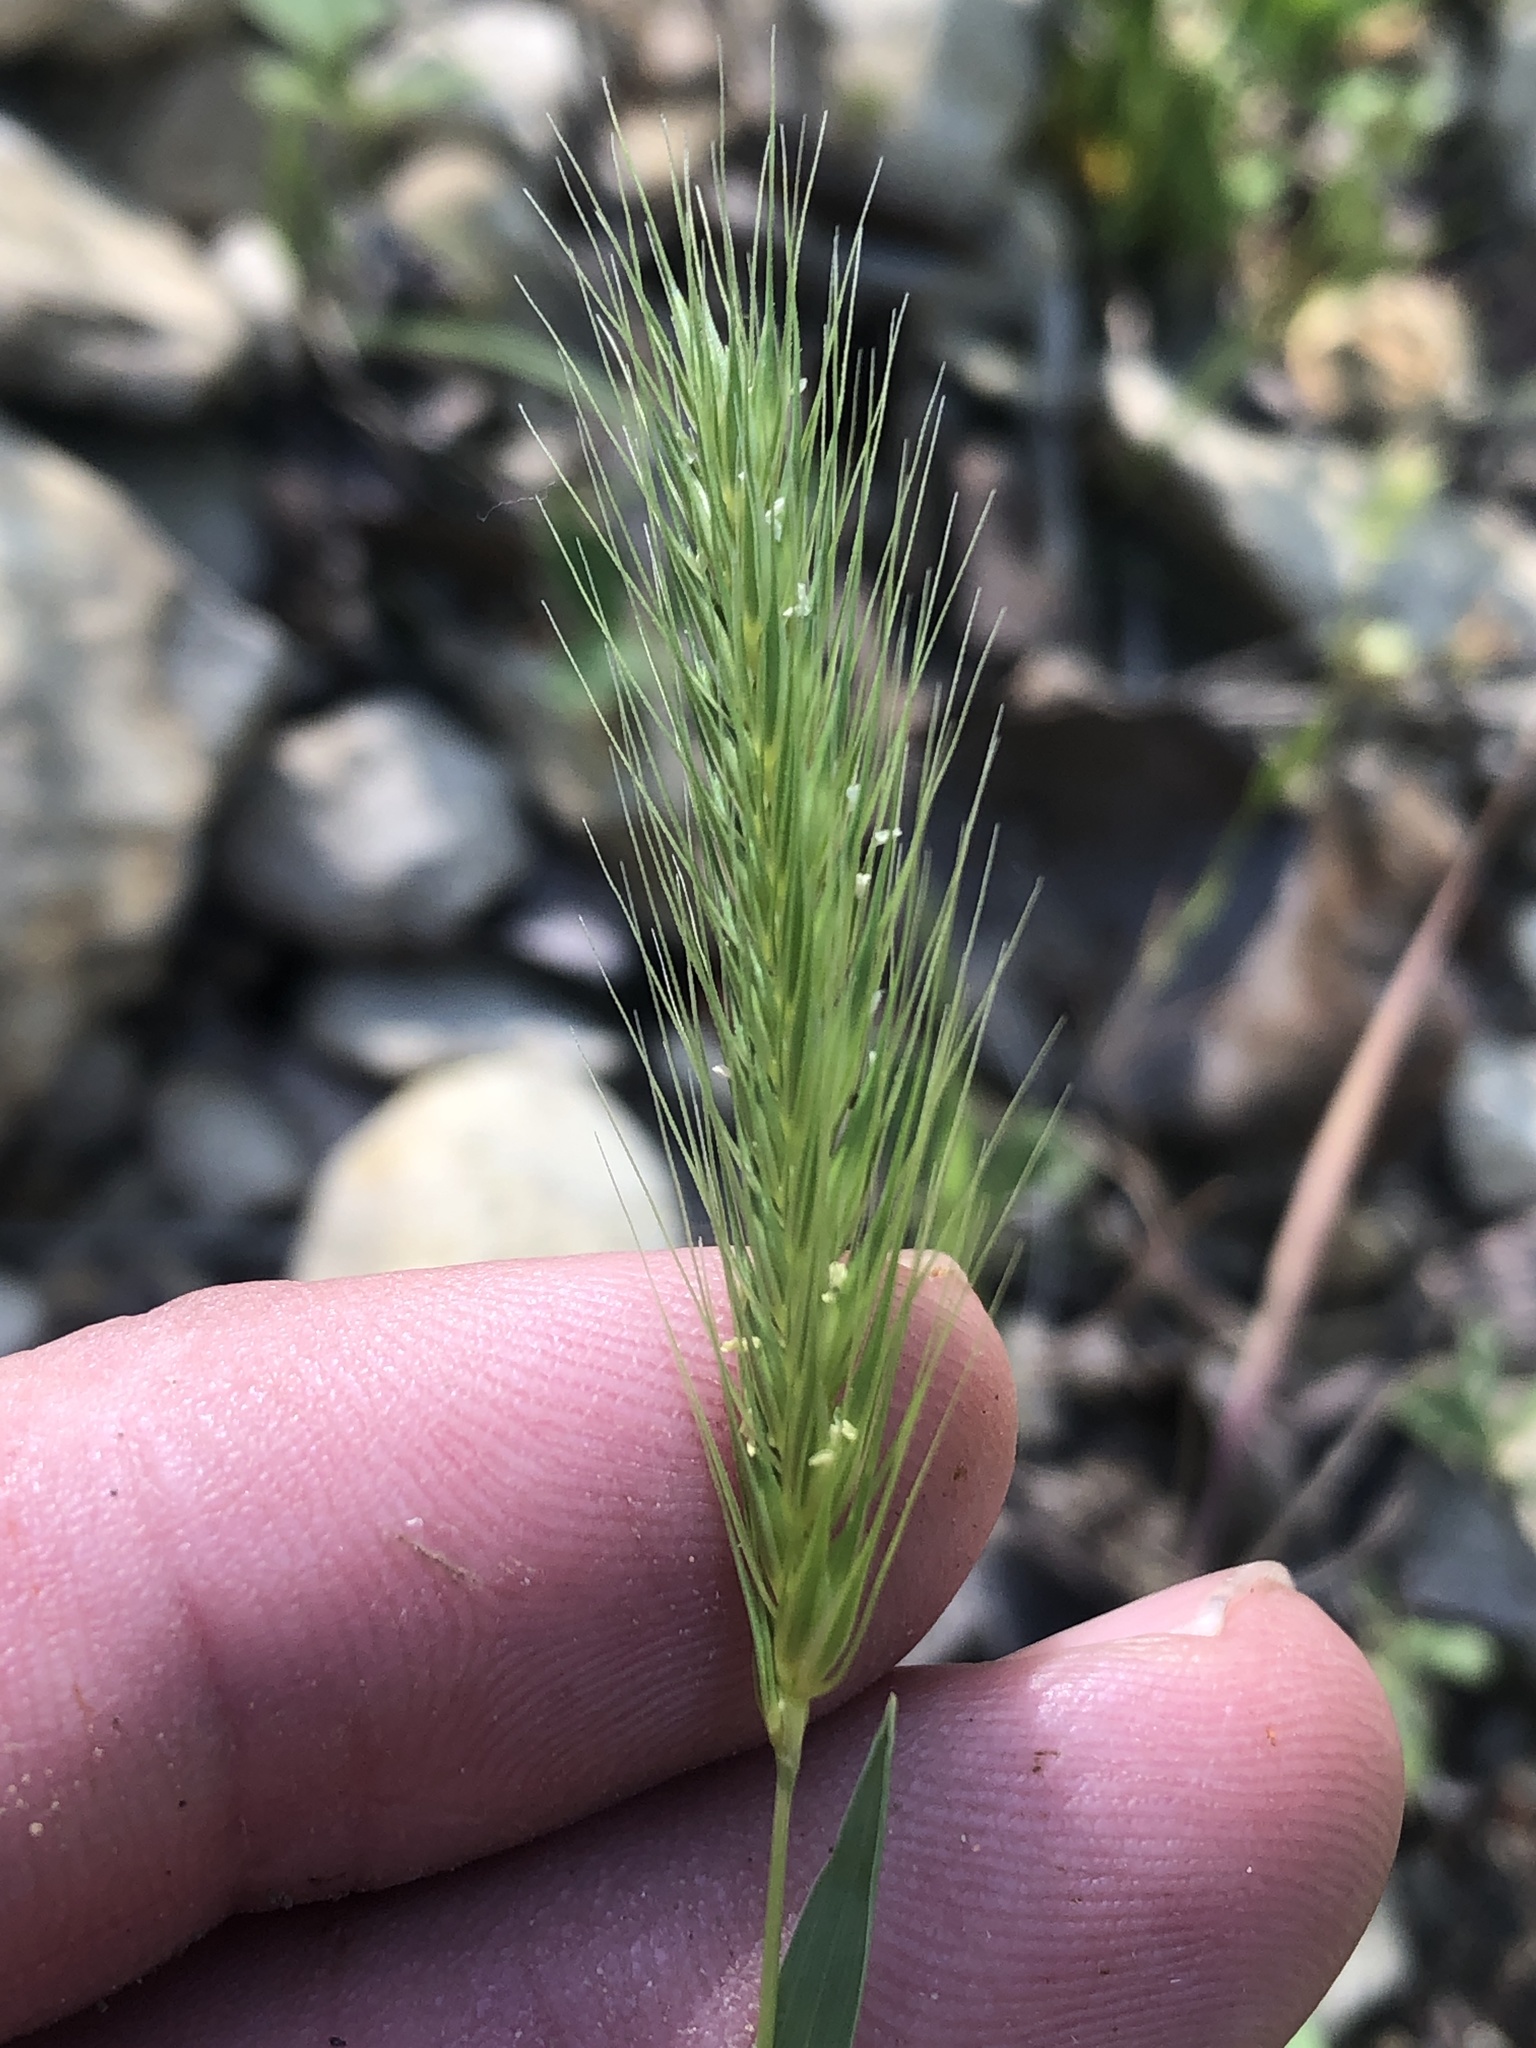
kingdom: Plantae
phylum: Tracheophyta
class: Liliopsida
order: Poales
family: Poaceae
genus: Hordeum
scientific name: Hordeum pusillum
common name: Little barley
